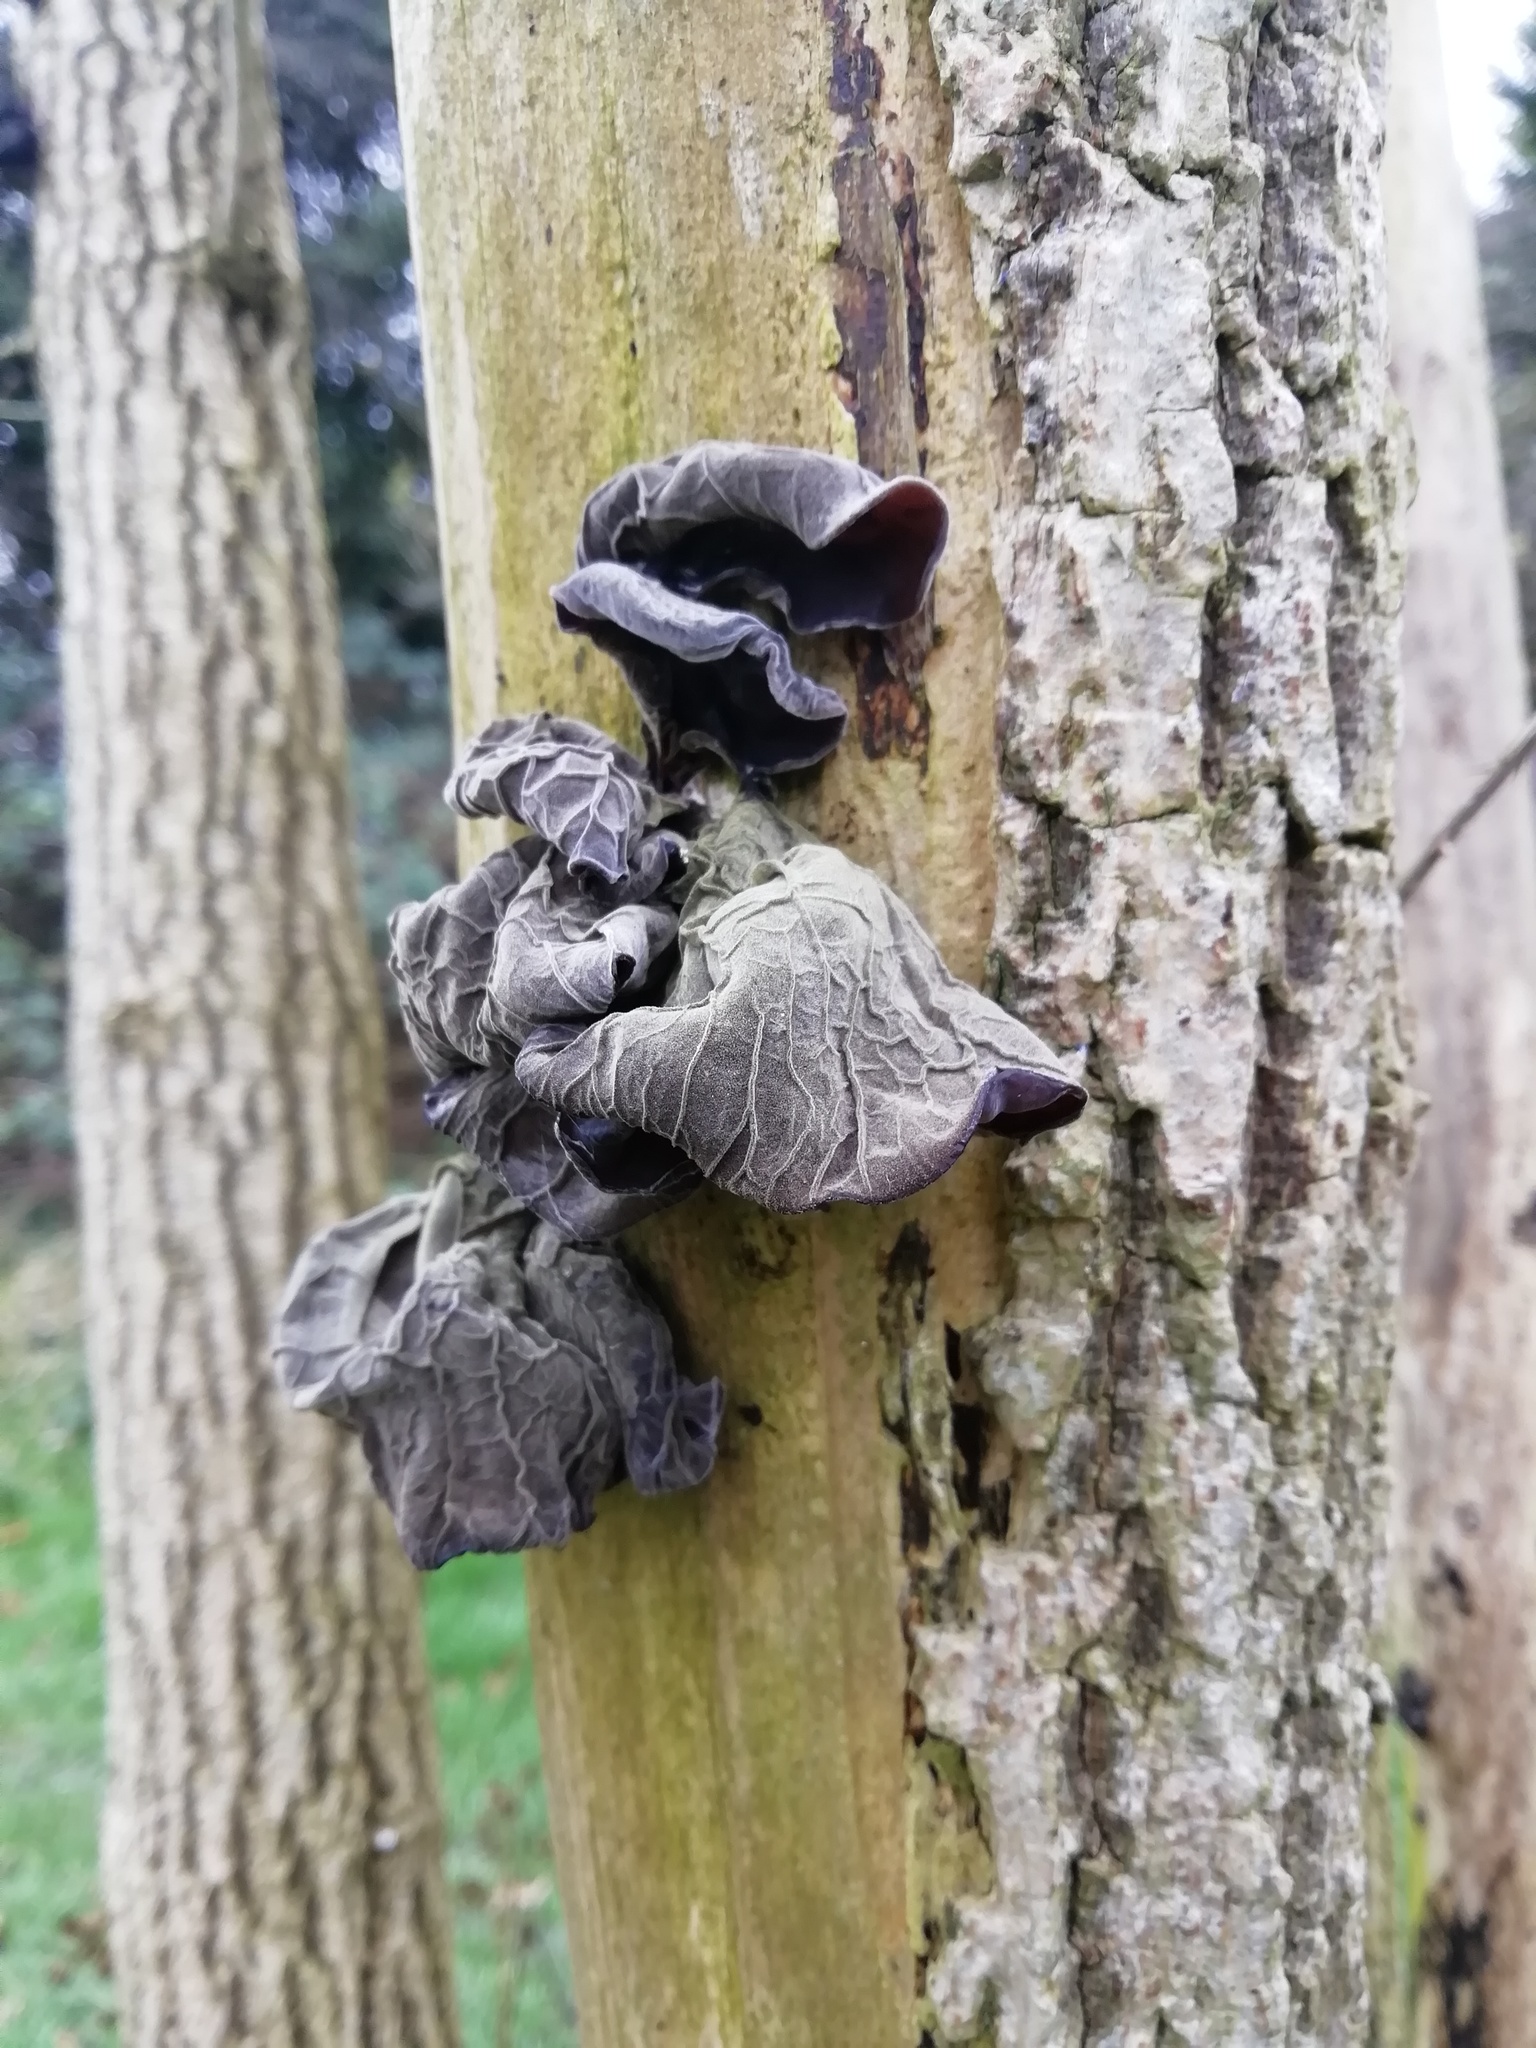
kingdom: Fungi
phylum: Basidiomycota
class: Agaricomycetes
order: Auriculariales
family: Auriculariaceae
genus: Auricularia
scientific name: Auricularia auricula-judae
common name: Jelly ear
